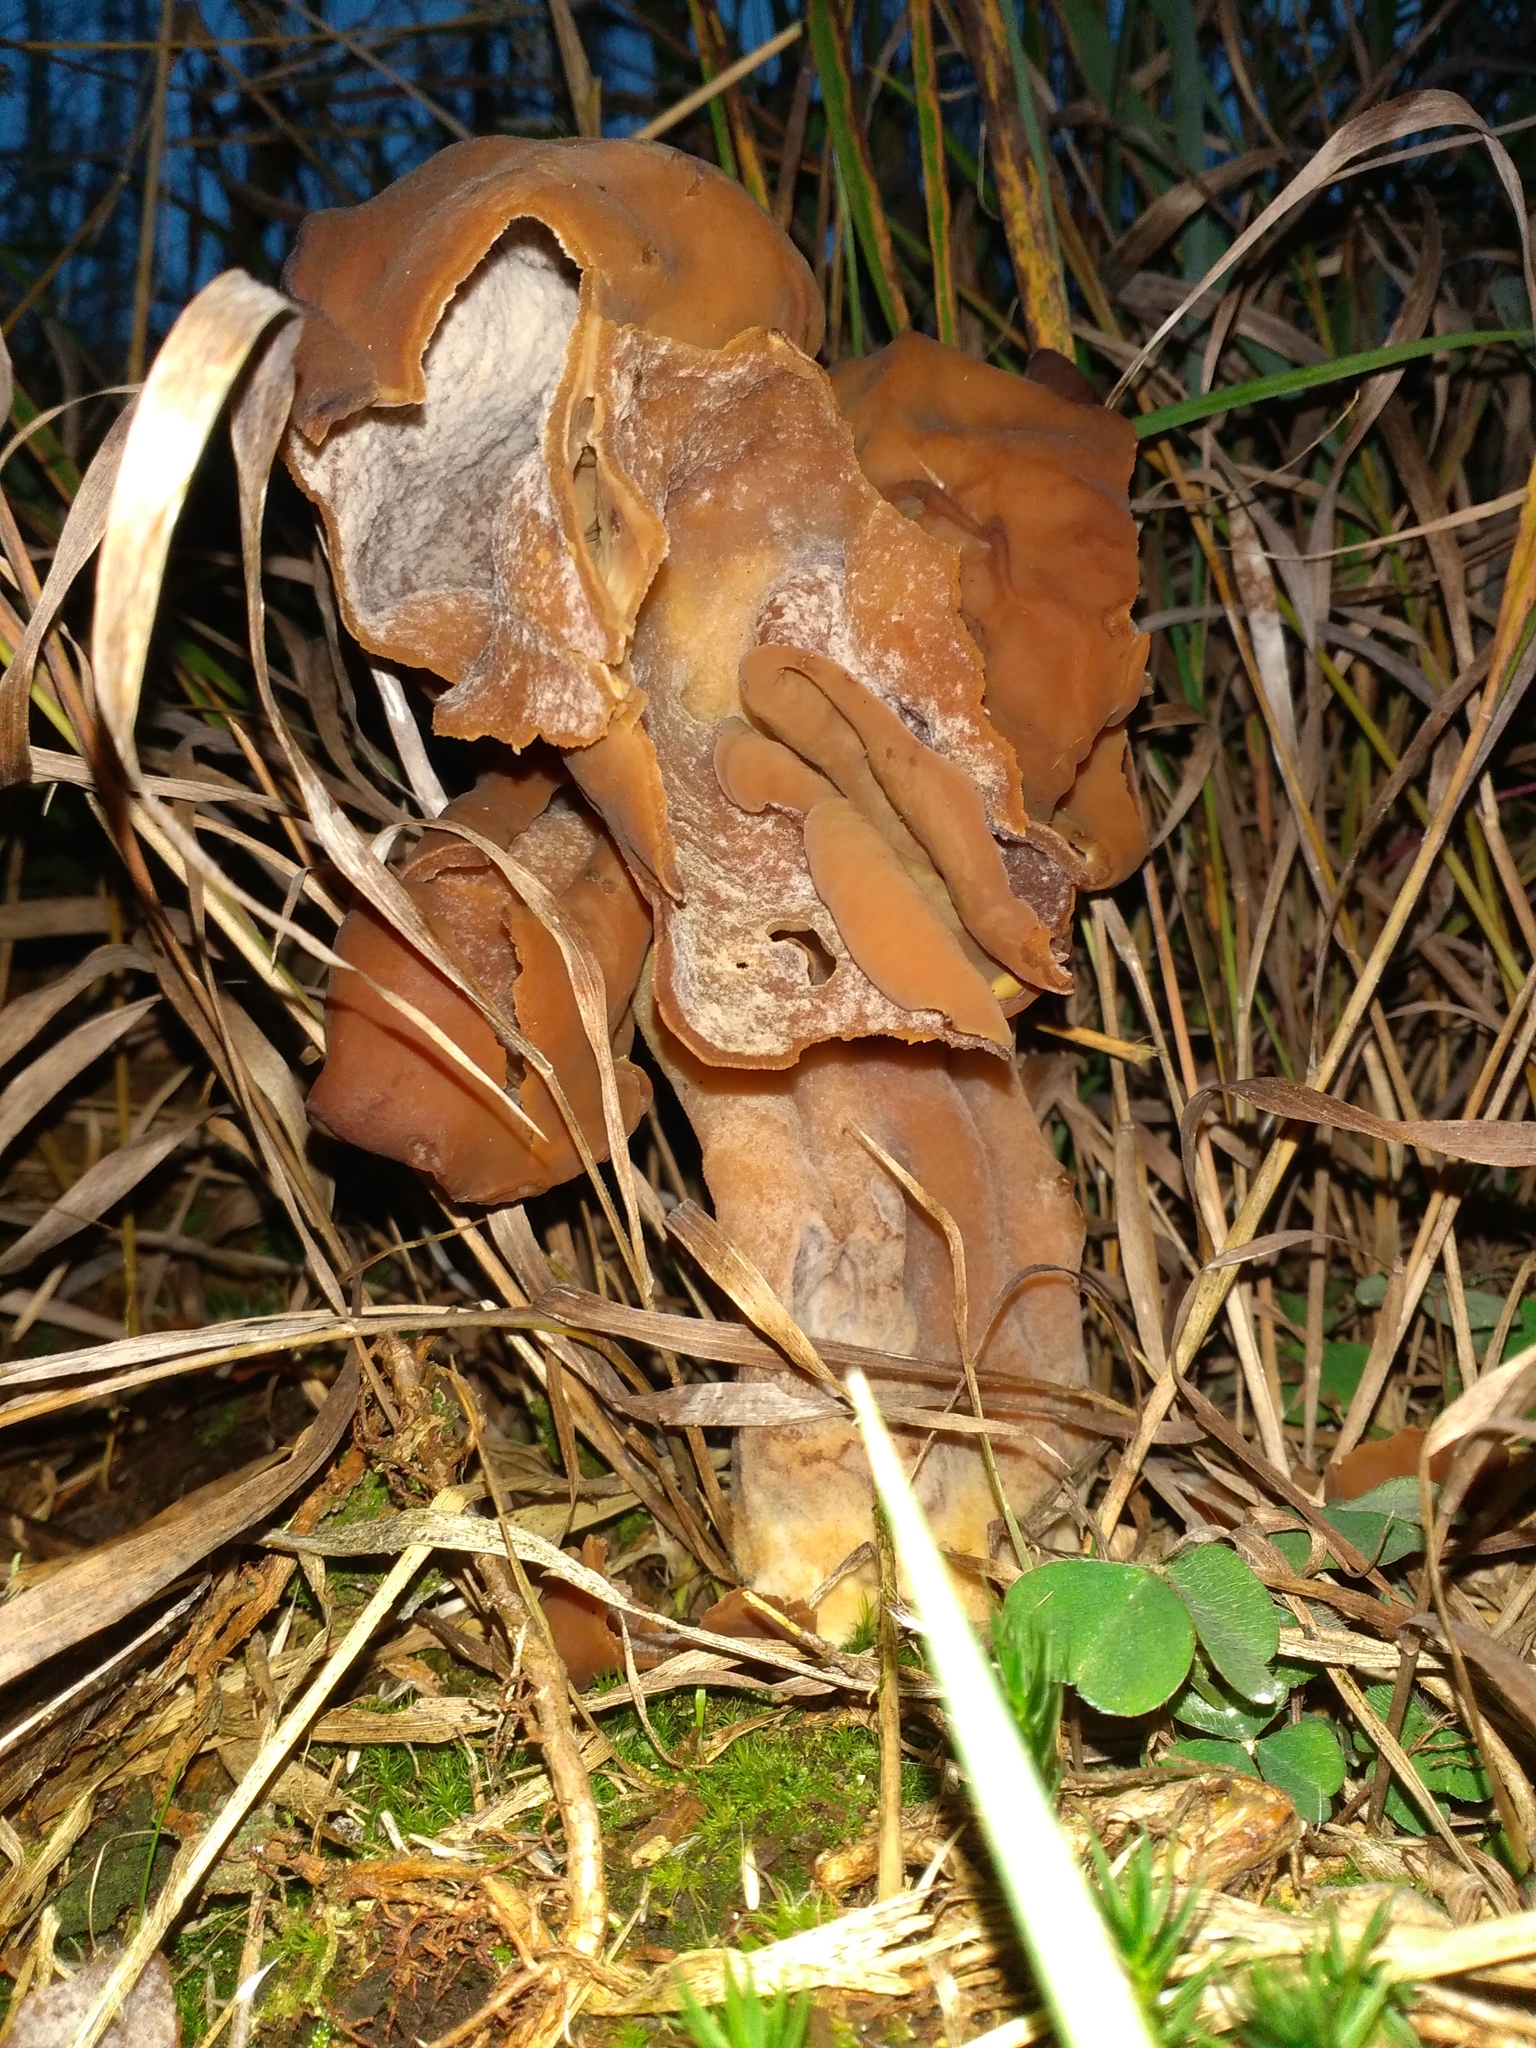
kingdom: Fungi
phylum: Ascomycota
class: Pezizomycetes
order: Pezizales
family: Discinaceae
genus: Gyromitra
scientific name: Gyromitra infula
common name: Pouched false morel
